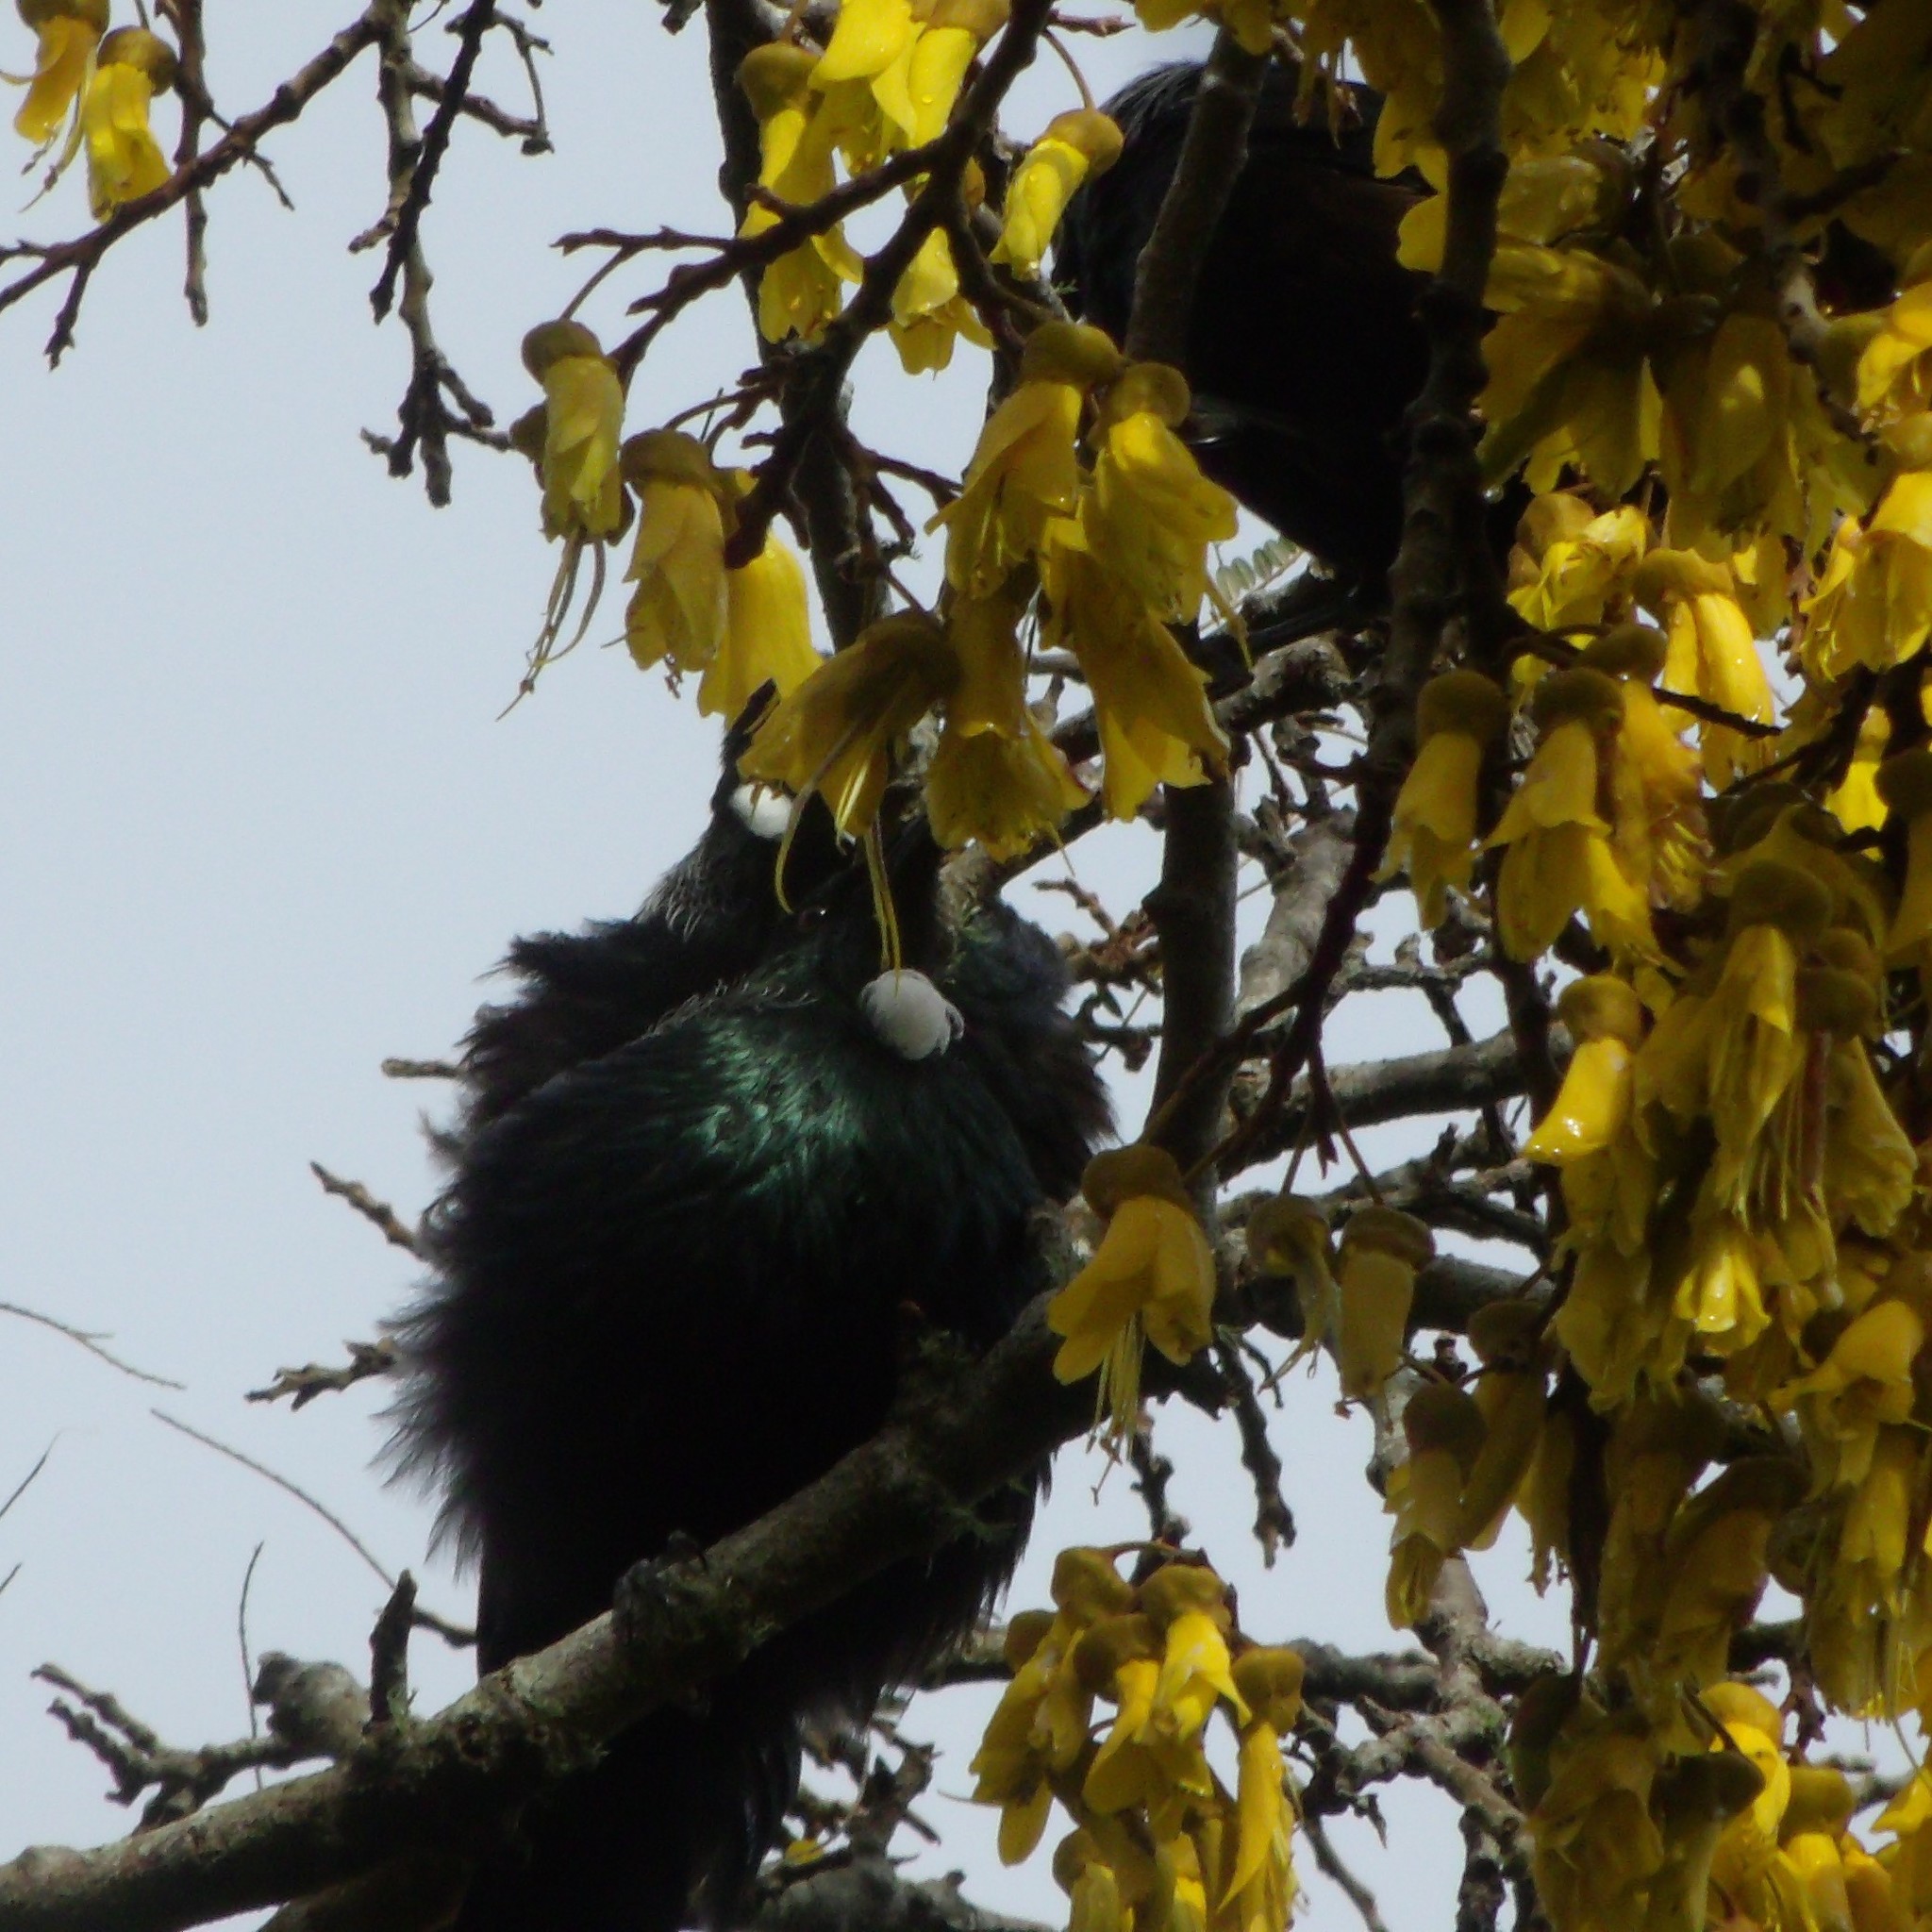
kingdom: Animalia
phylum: Chordata
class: Aves
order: Passeriformes
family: Meliphagidae
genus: Prosthemadera
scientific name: Prosthemadera novaeseelandiae
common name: Tui
